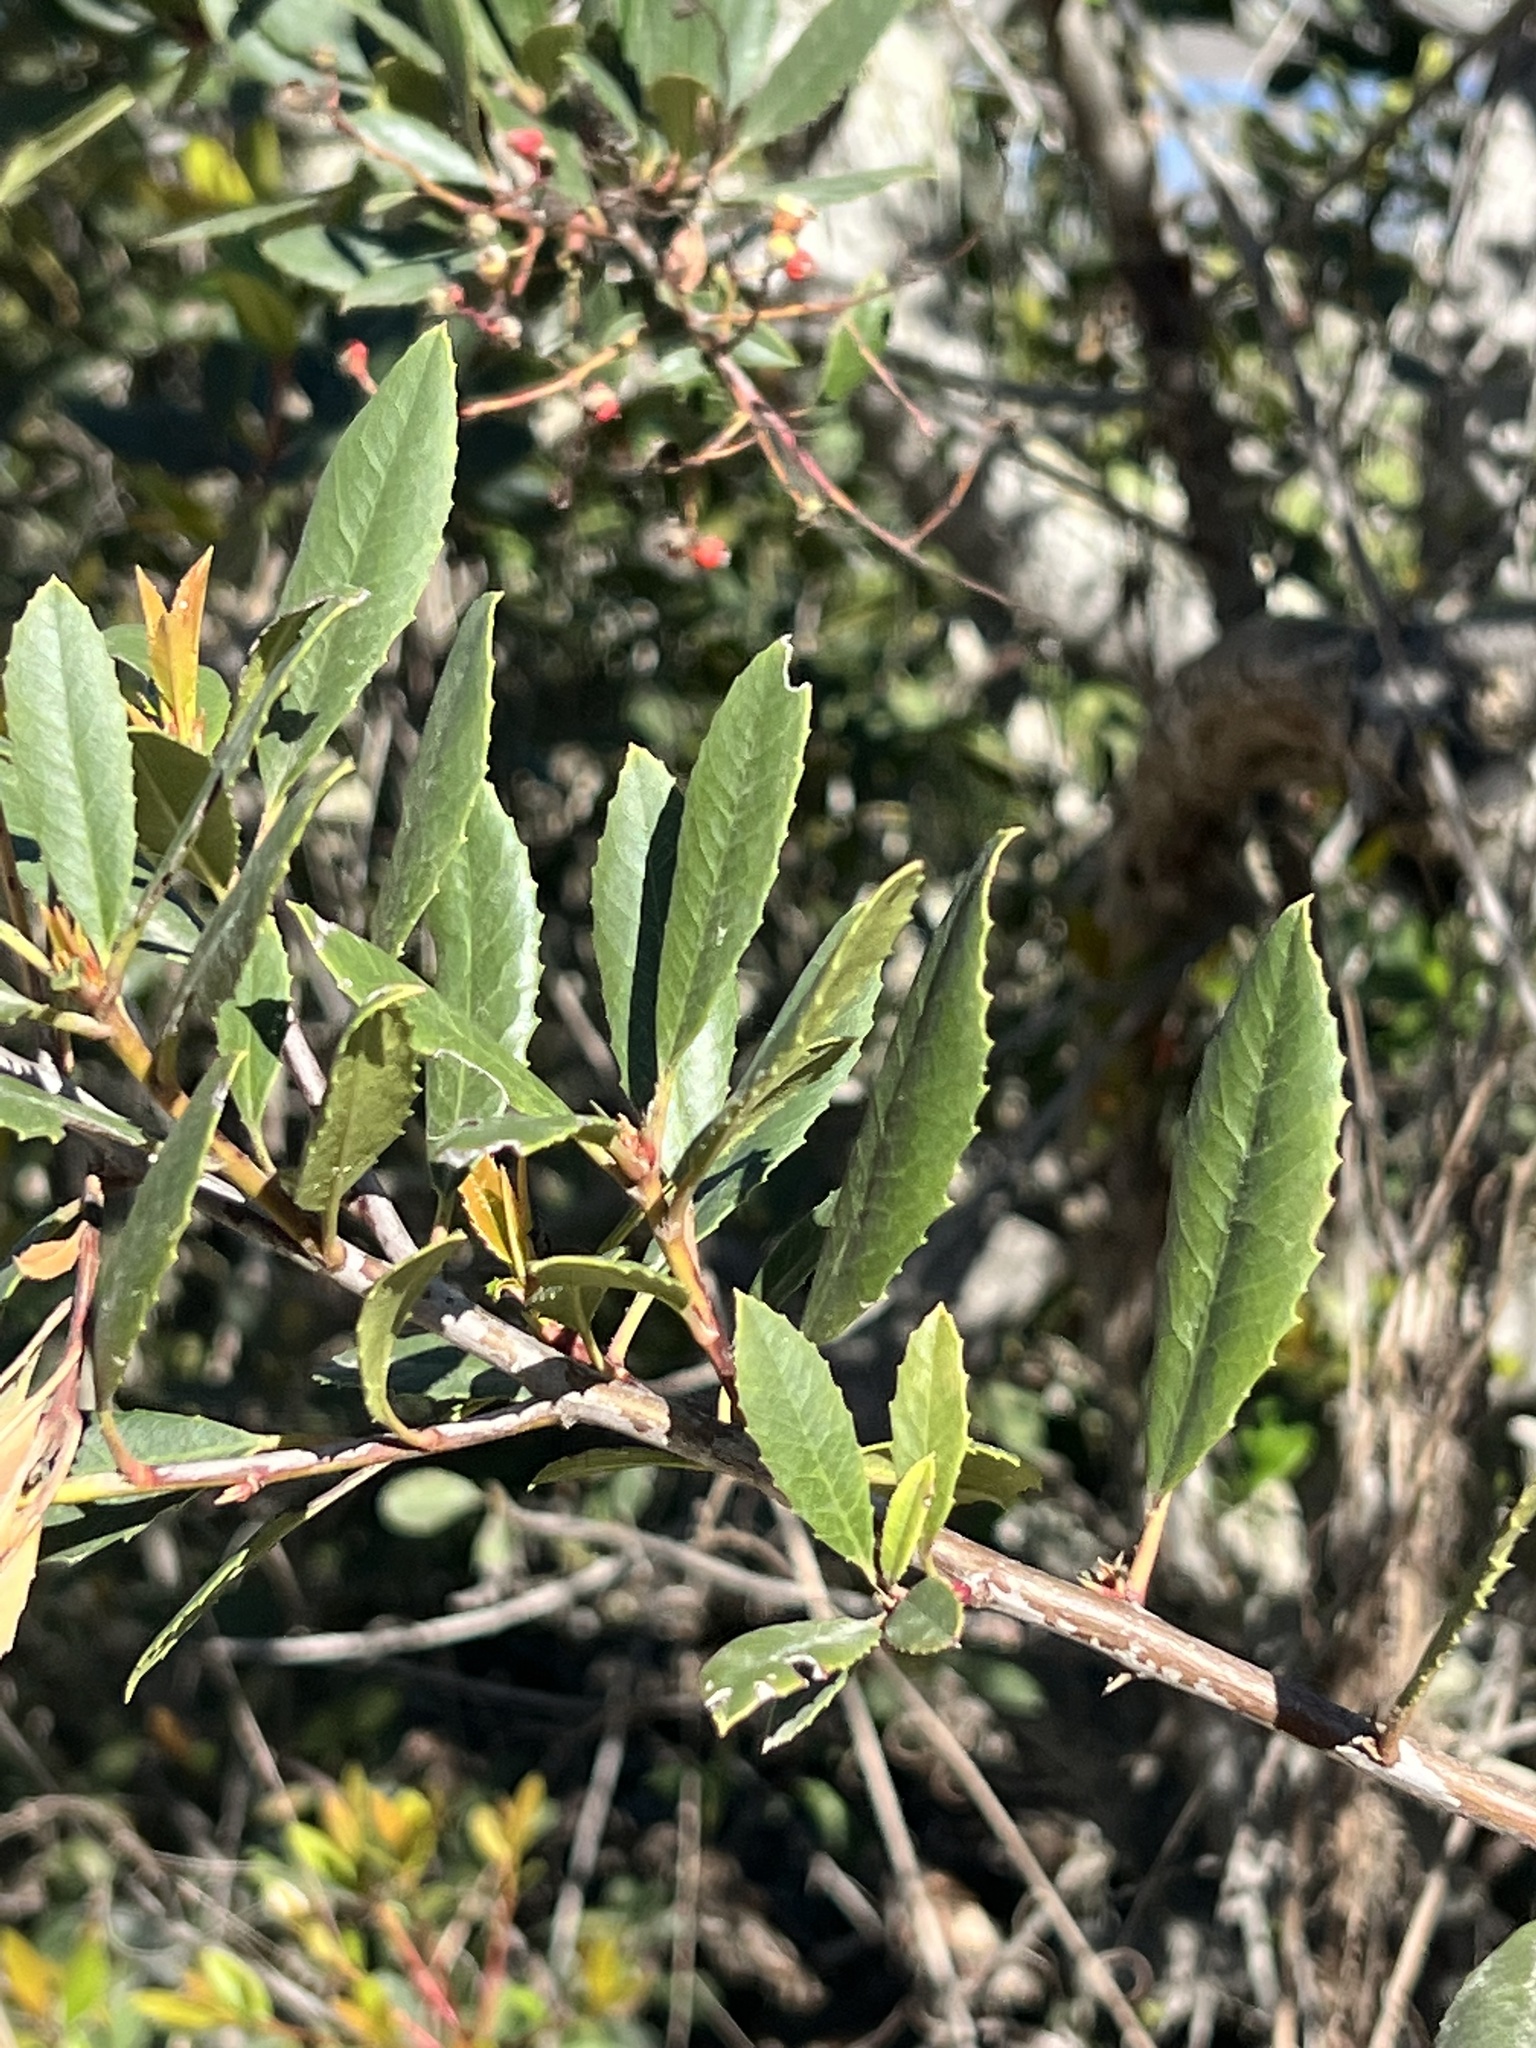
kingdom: Plantae
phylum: Tracheophyta
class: Magnoliopsida
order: Rosales
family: Rosaceae
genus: Heteromeles
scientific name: Heteromeles arbutifolia
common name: California-holly
